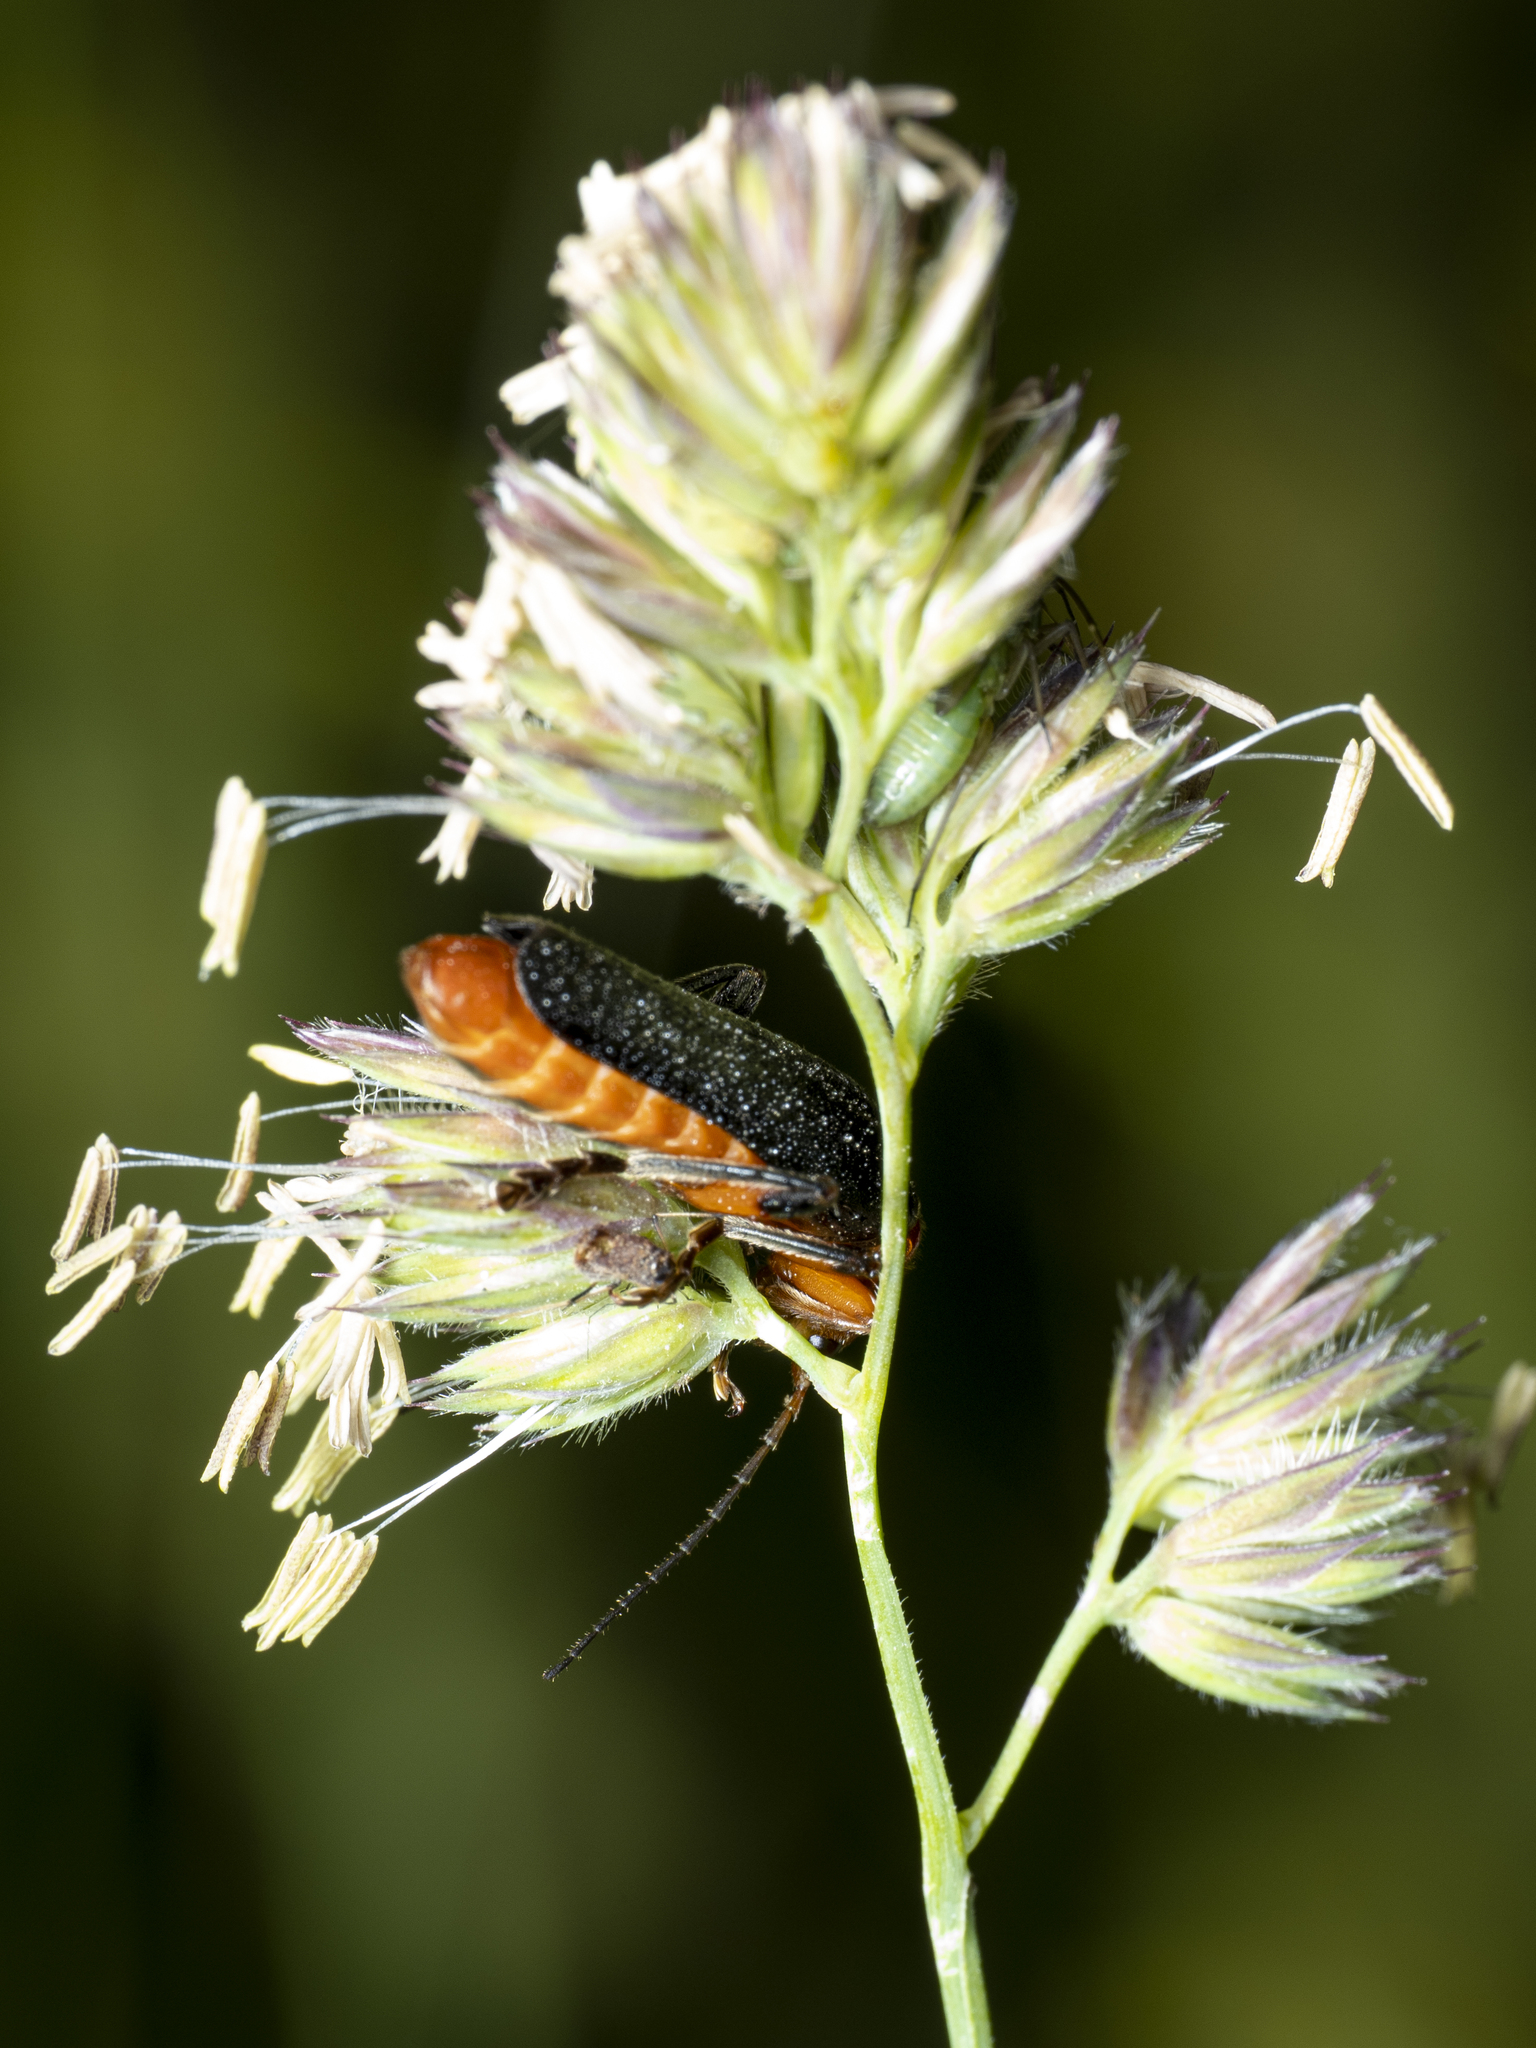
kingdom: Animalia
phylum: Arthropoda
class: Insecta
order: Coleoptera
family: Cantharidae
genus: Cantharis
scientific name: Cantharis livida
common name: Livid soldier beetle
